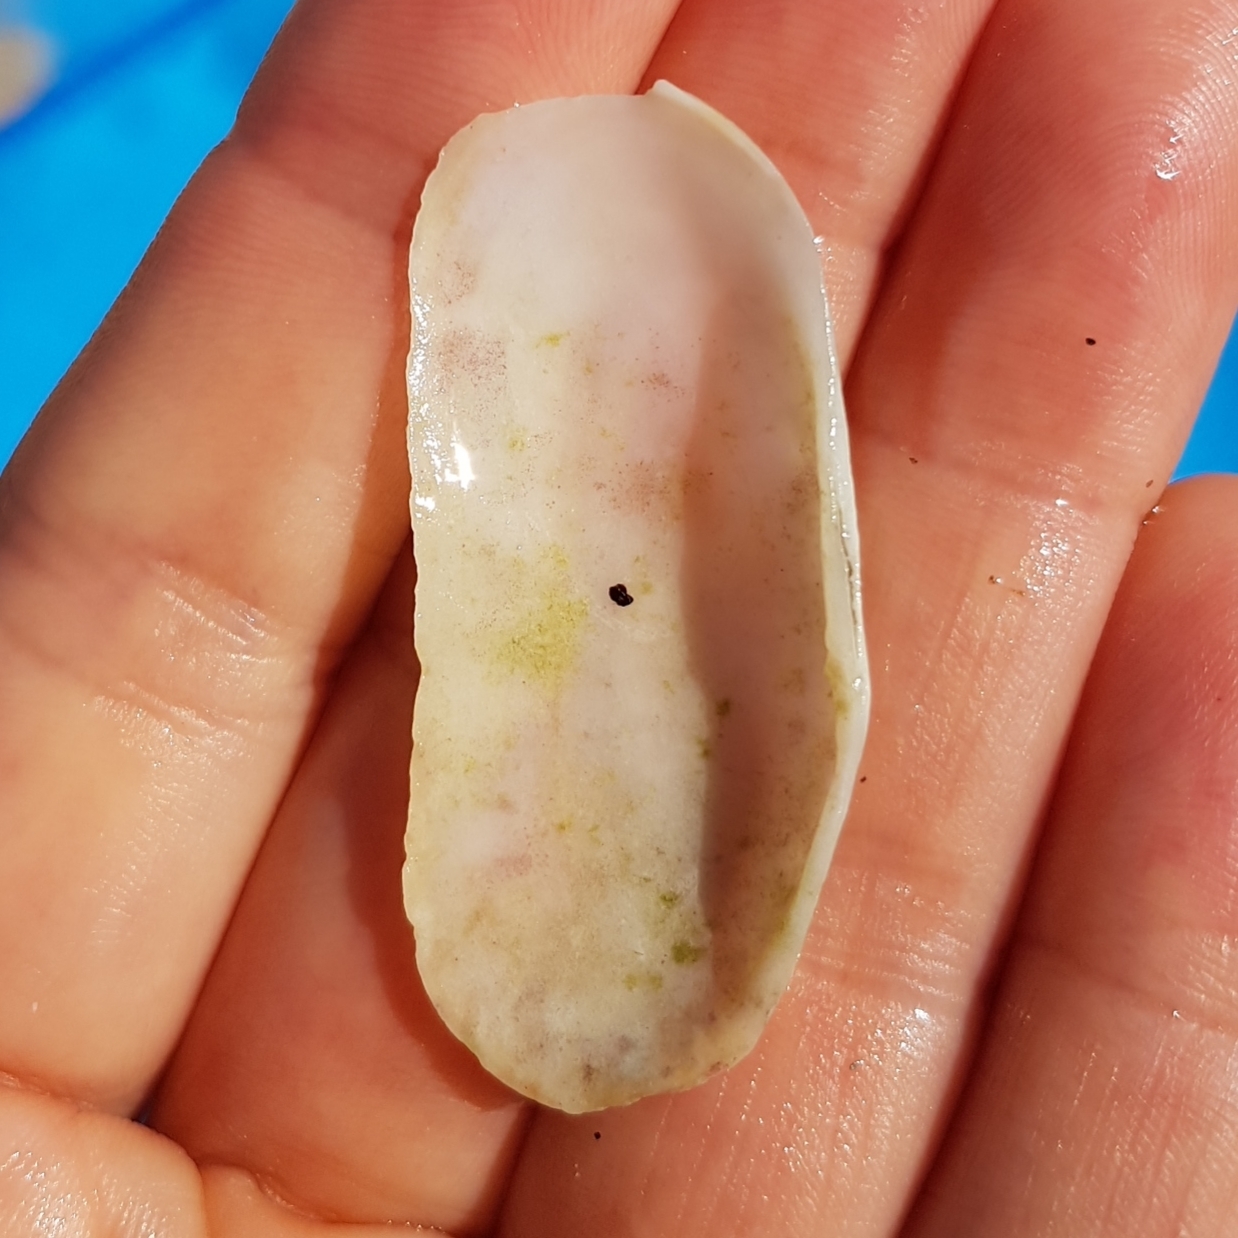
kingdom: Animalia
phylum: Mollusca
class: Bivalvia
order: Cardiida
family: Solecurtidae
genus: Azorinus
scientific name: Azorinus chamasolen
